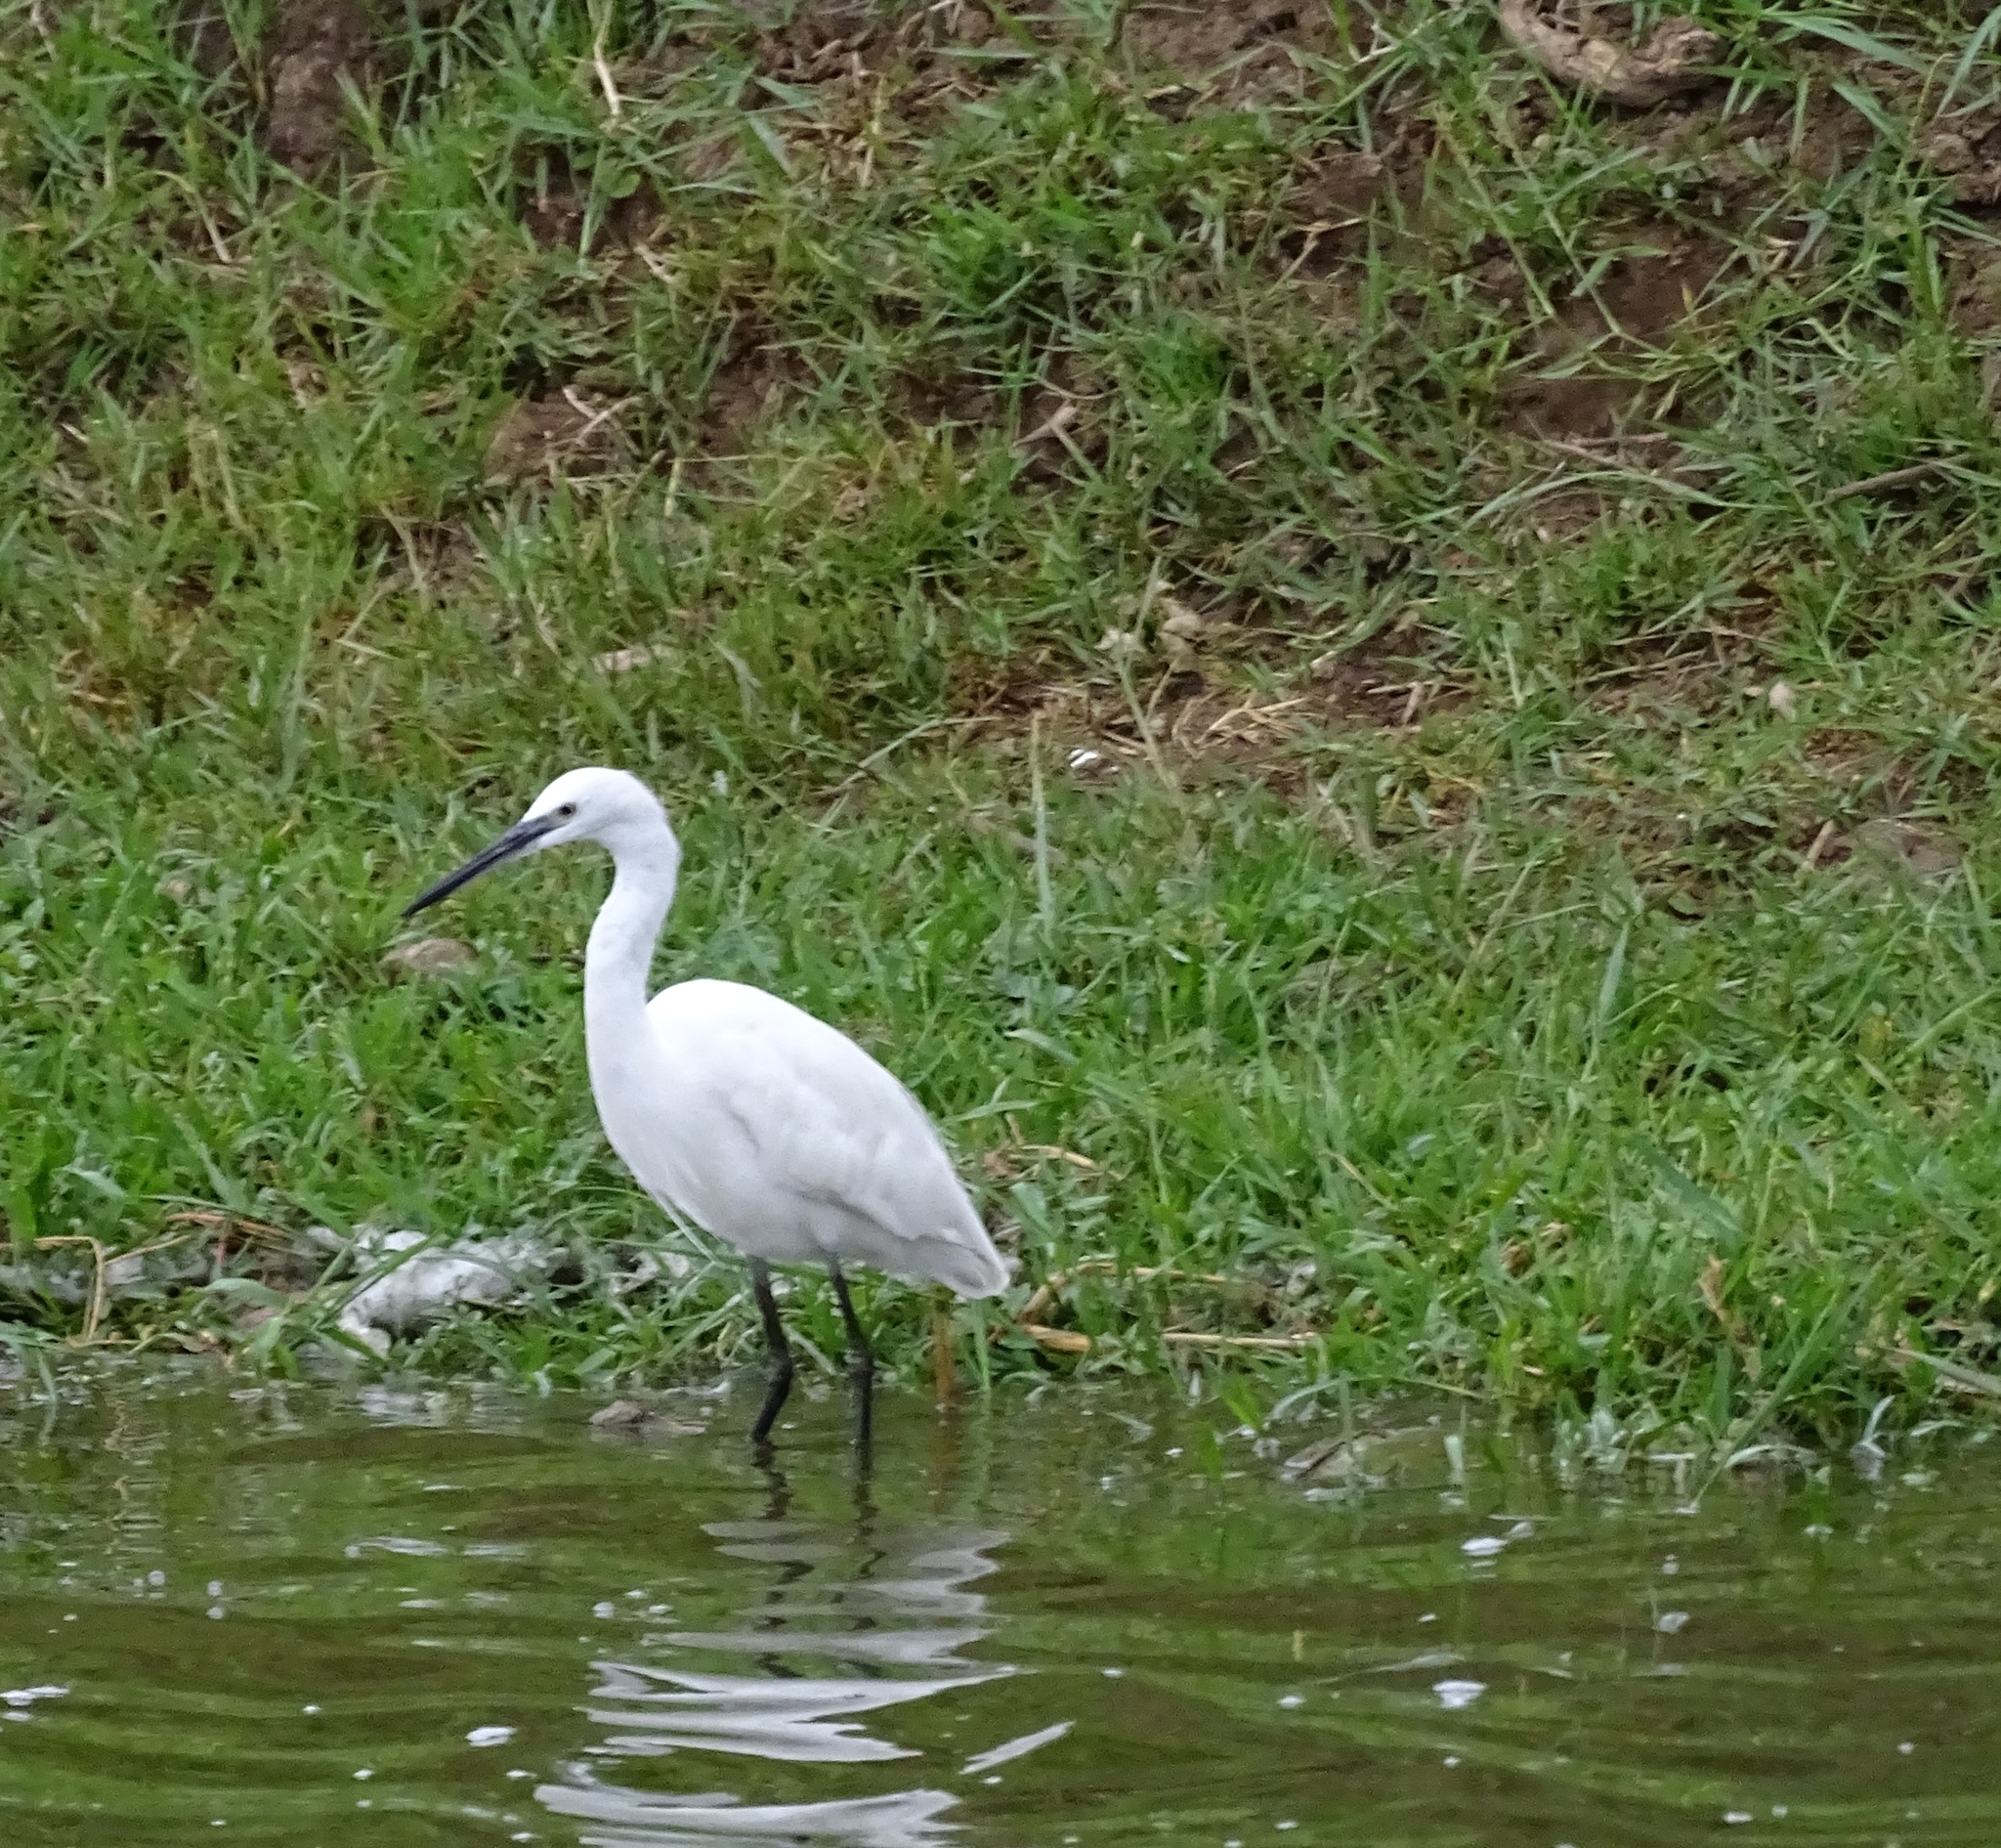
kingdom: Animalia
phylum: Chordata
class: Aves
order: Pelecaniformes
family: Ardeidae
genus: Egretta
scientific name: Egretta garzetta
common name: Little egret
